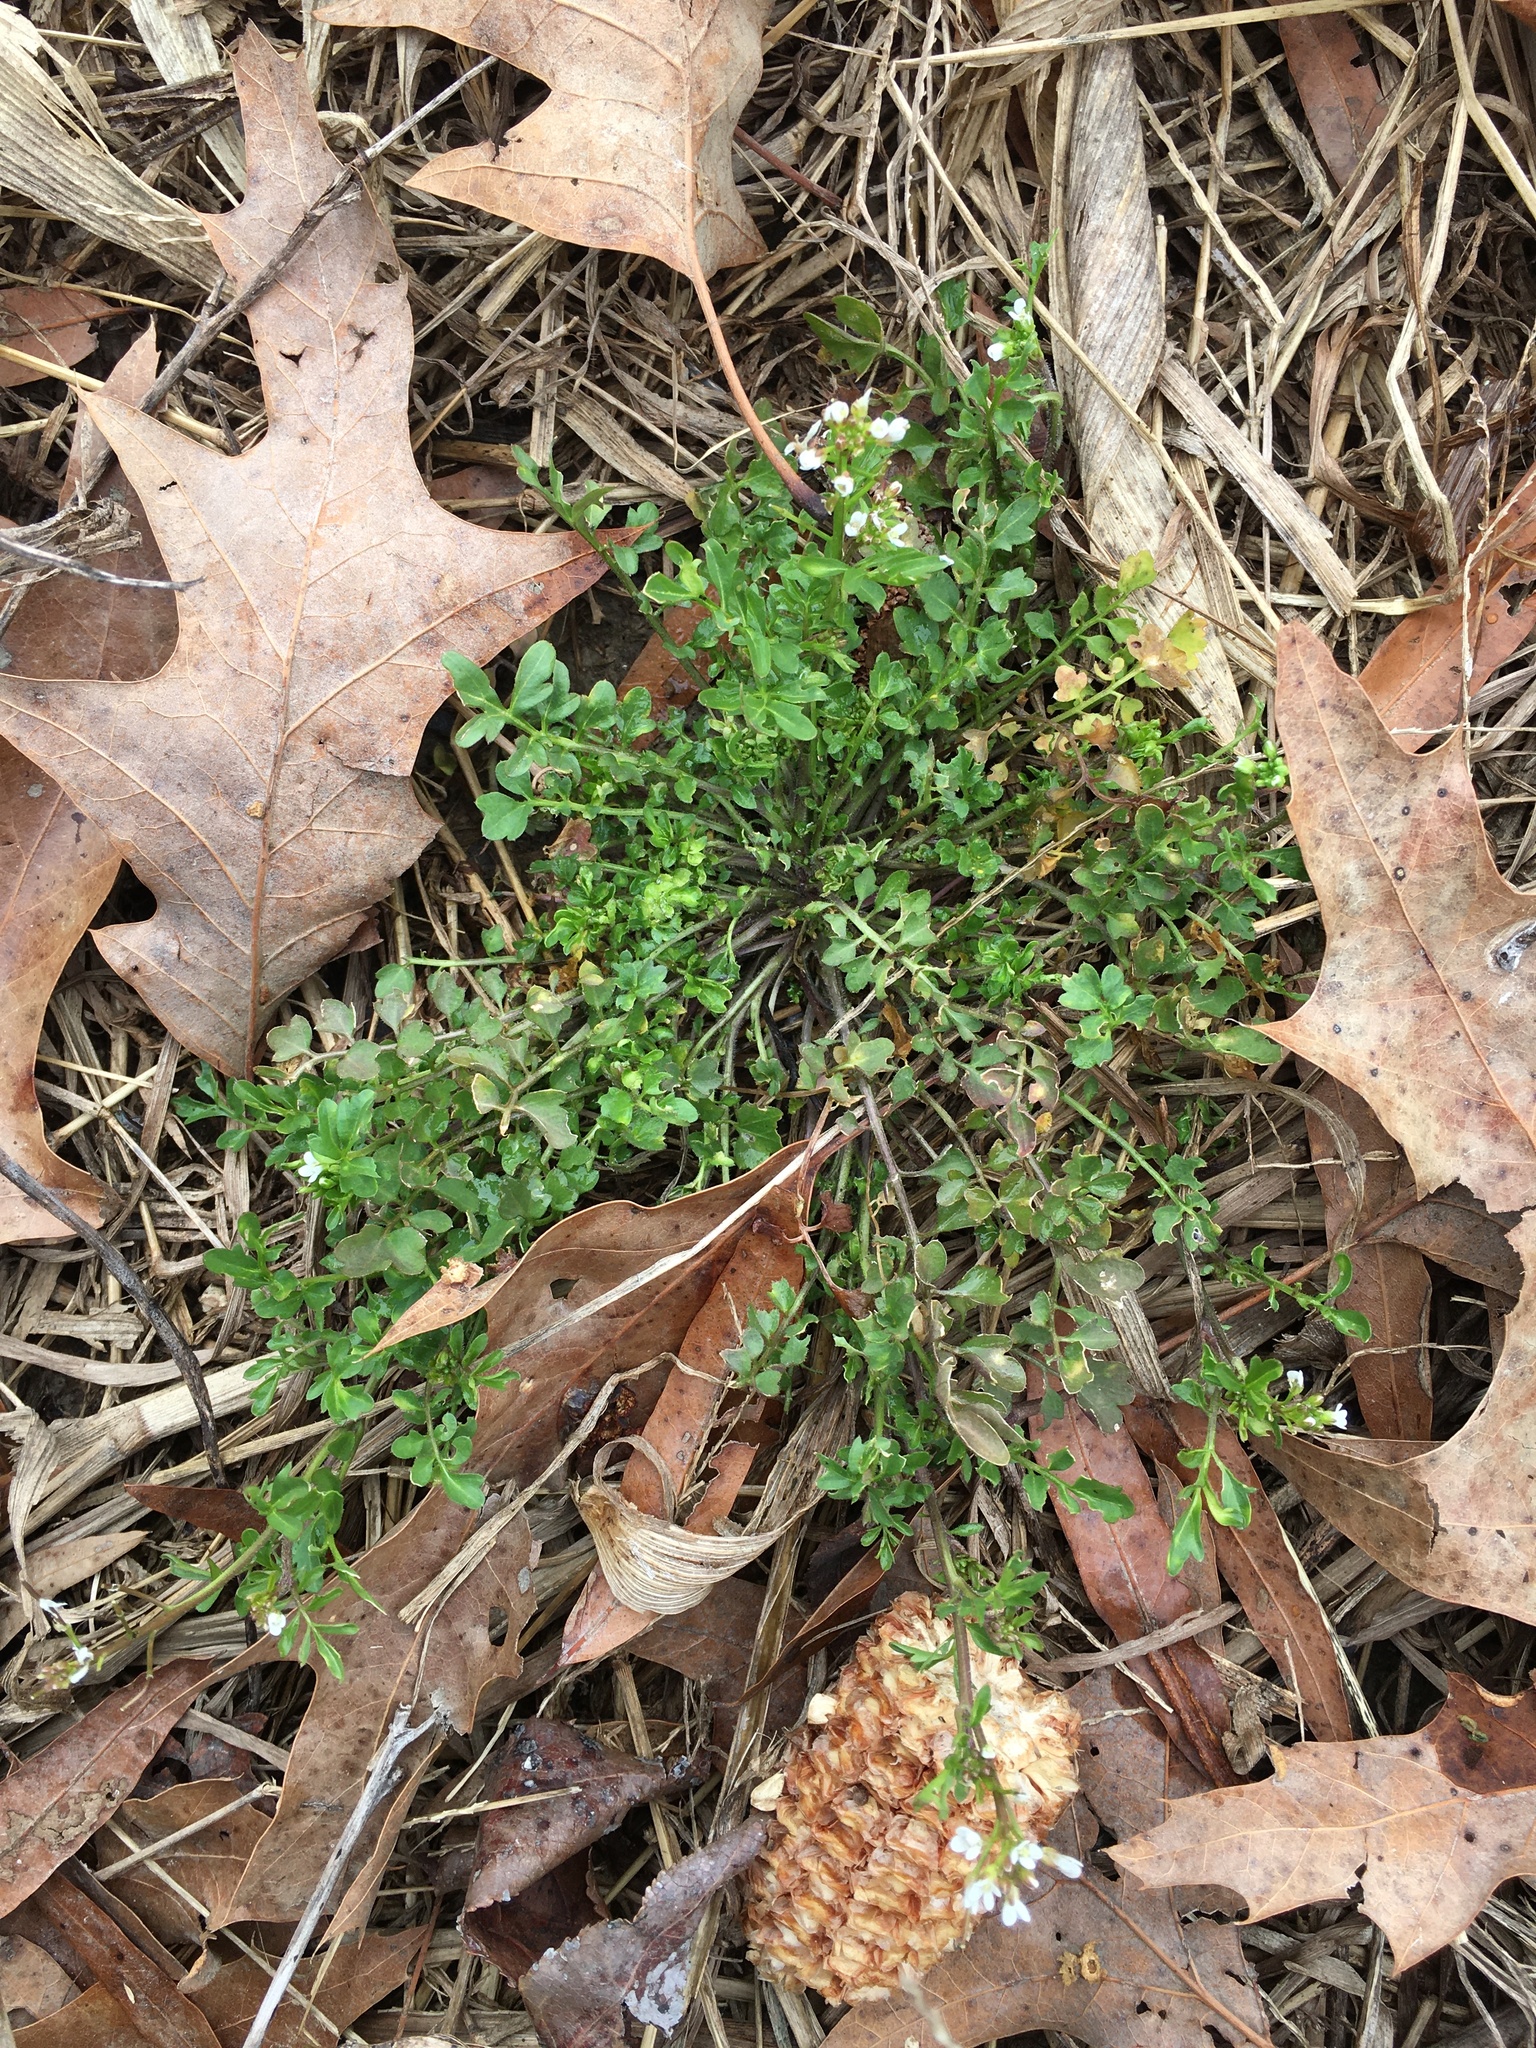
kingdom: Plantae
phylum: Tracheophyta
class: Magnoliopsida
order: Brassicales
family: Brassicaceae
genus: Cardamine
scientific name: Cardamine hirsuta
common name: Hairy bittercress
